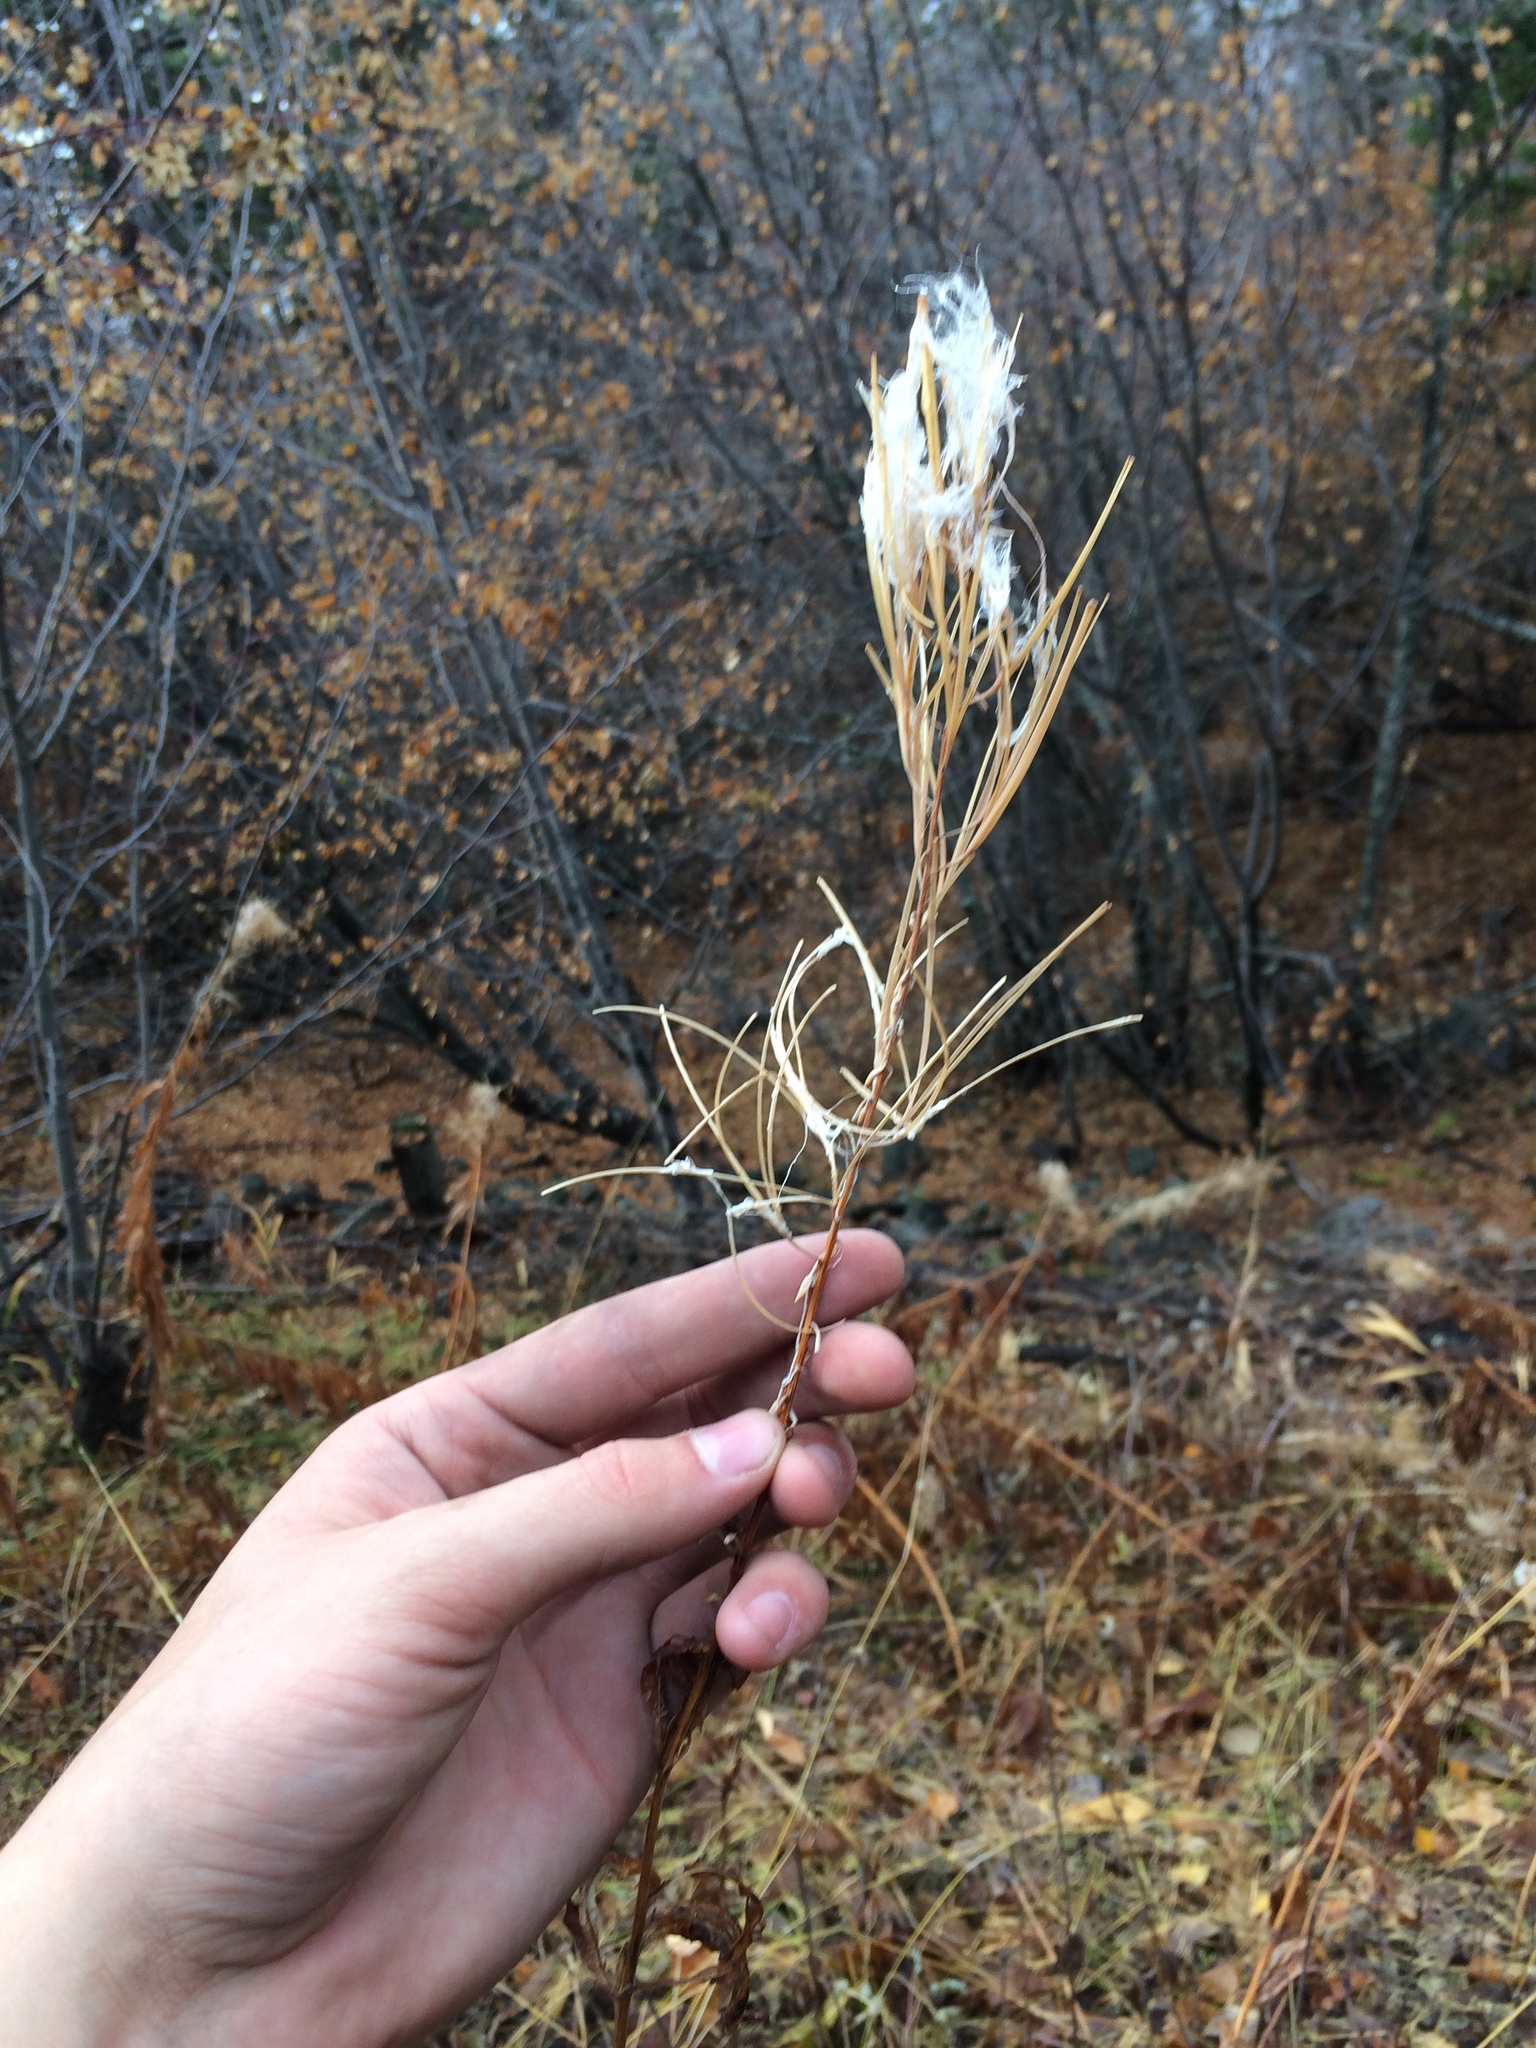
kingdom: Plantae
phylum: Tracheophyta
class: Magnoliopsida
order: Myrtales
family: Onagraceae
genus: Chamaenerion
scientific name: Chamaenerion angustifolium
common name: Fireweed
